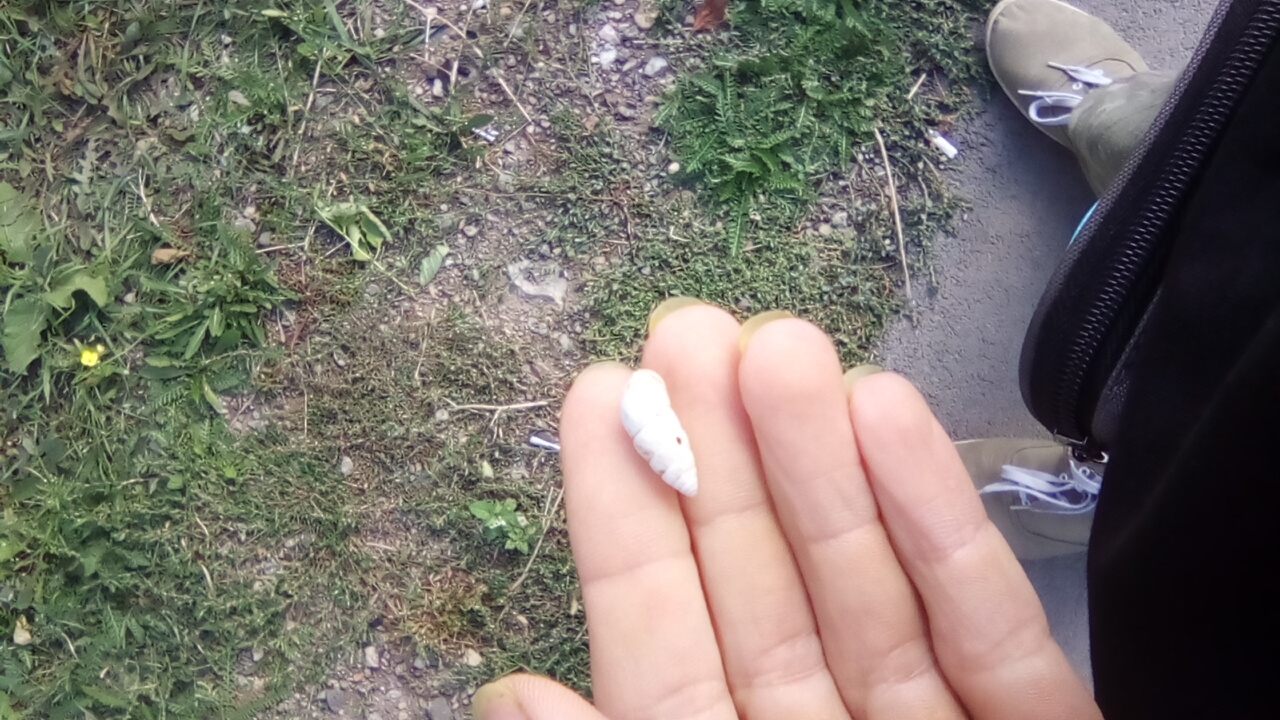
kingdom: Animalia
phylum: Mollusca
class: Gastropoda
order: Stylommatophora
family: Enidae
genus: Brephulopsis
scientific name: Brephulopsis cylindrica
